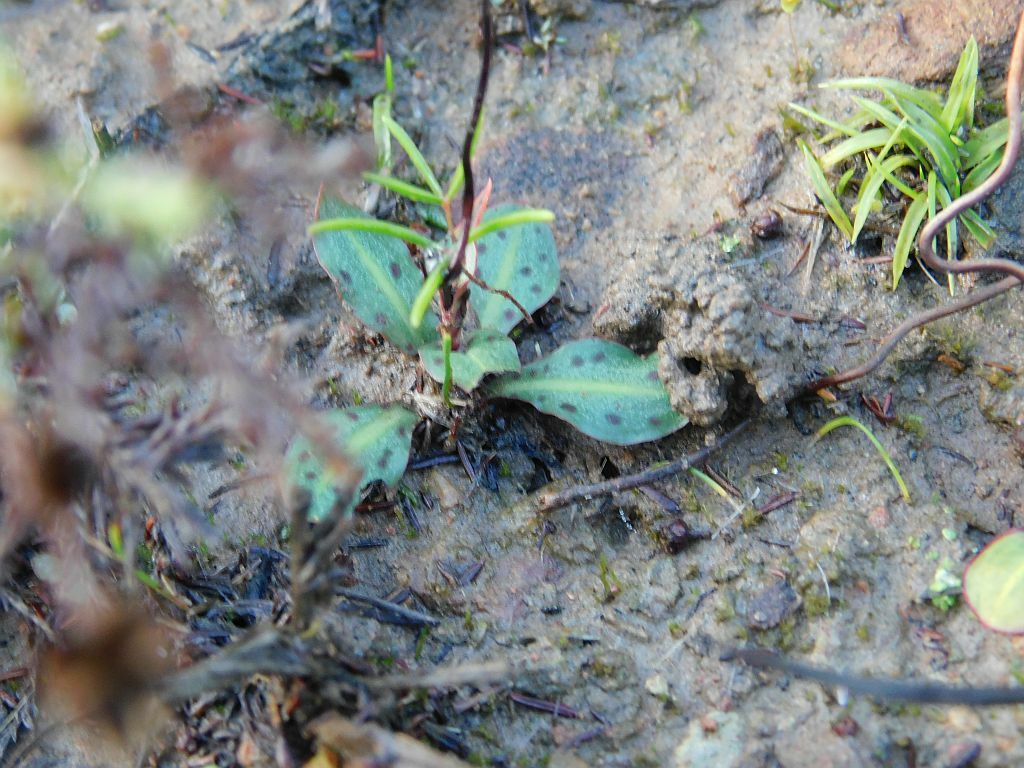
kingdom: Plantae
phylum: Tracheophyta
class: Liliopsida
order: Asparagales
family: Orchidaceae
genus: Disa
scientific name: Disa bifida
